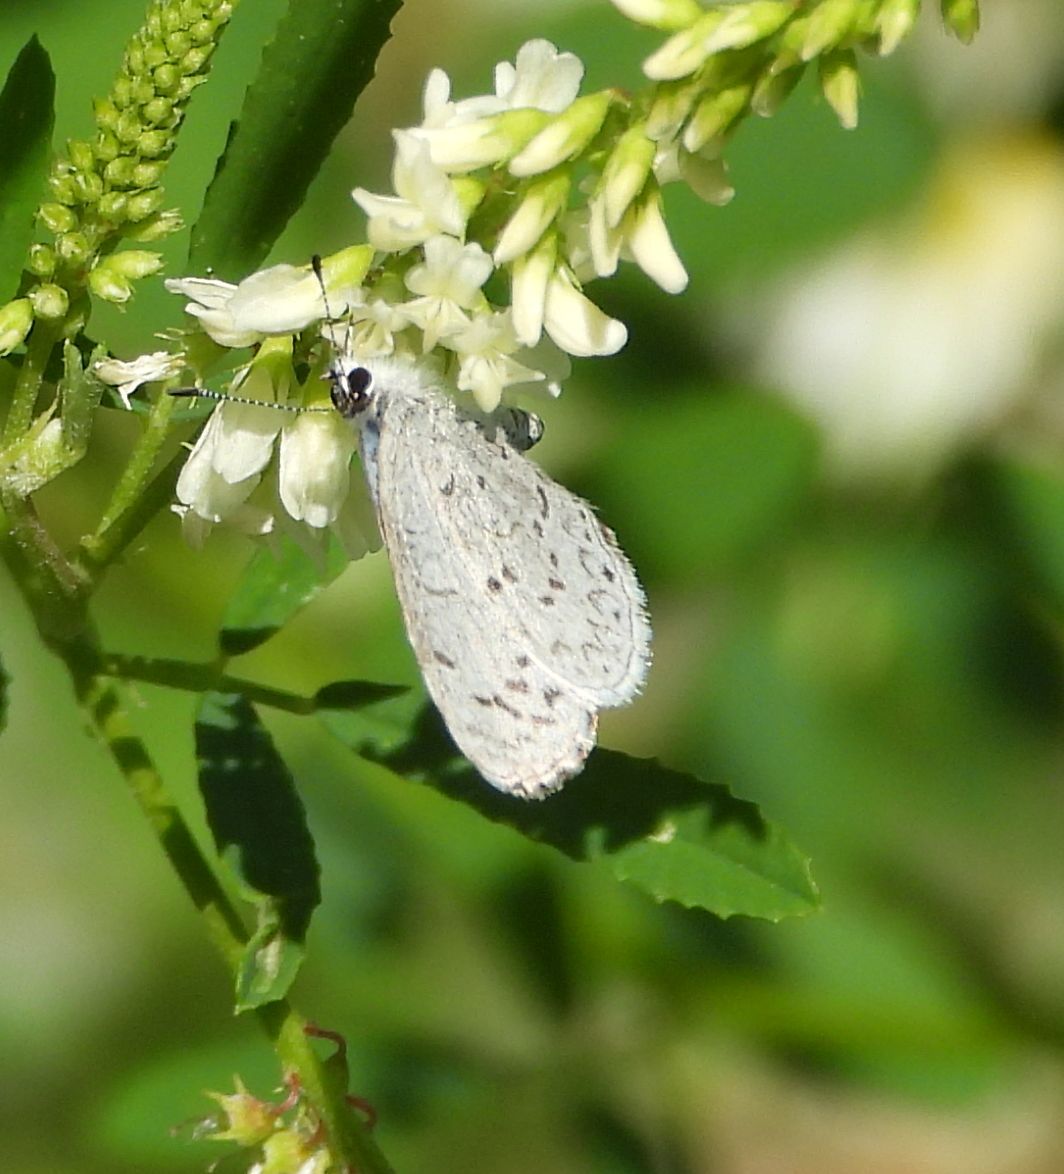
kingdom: Animalia
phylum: Arthropoda
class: Insecta
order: Lepidoptera
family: Lycaenidae
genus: Celastrina
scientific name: Celastrina lucia
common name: Lucia azure
